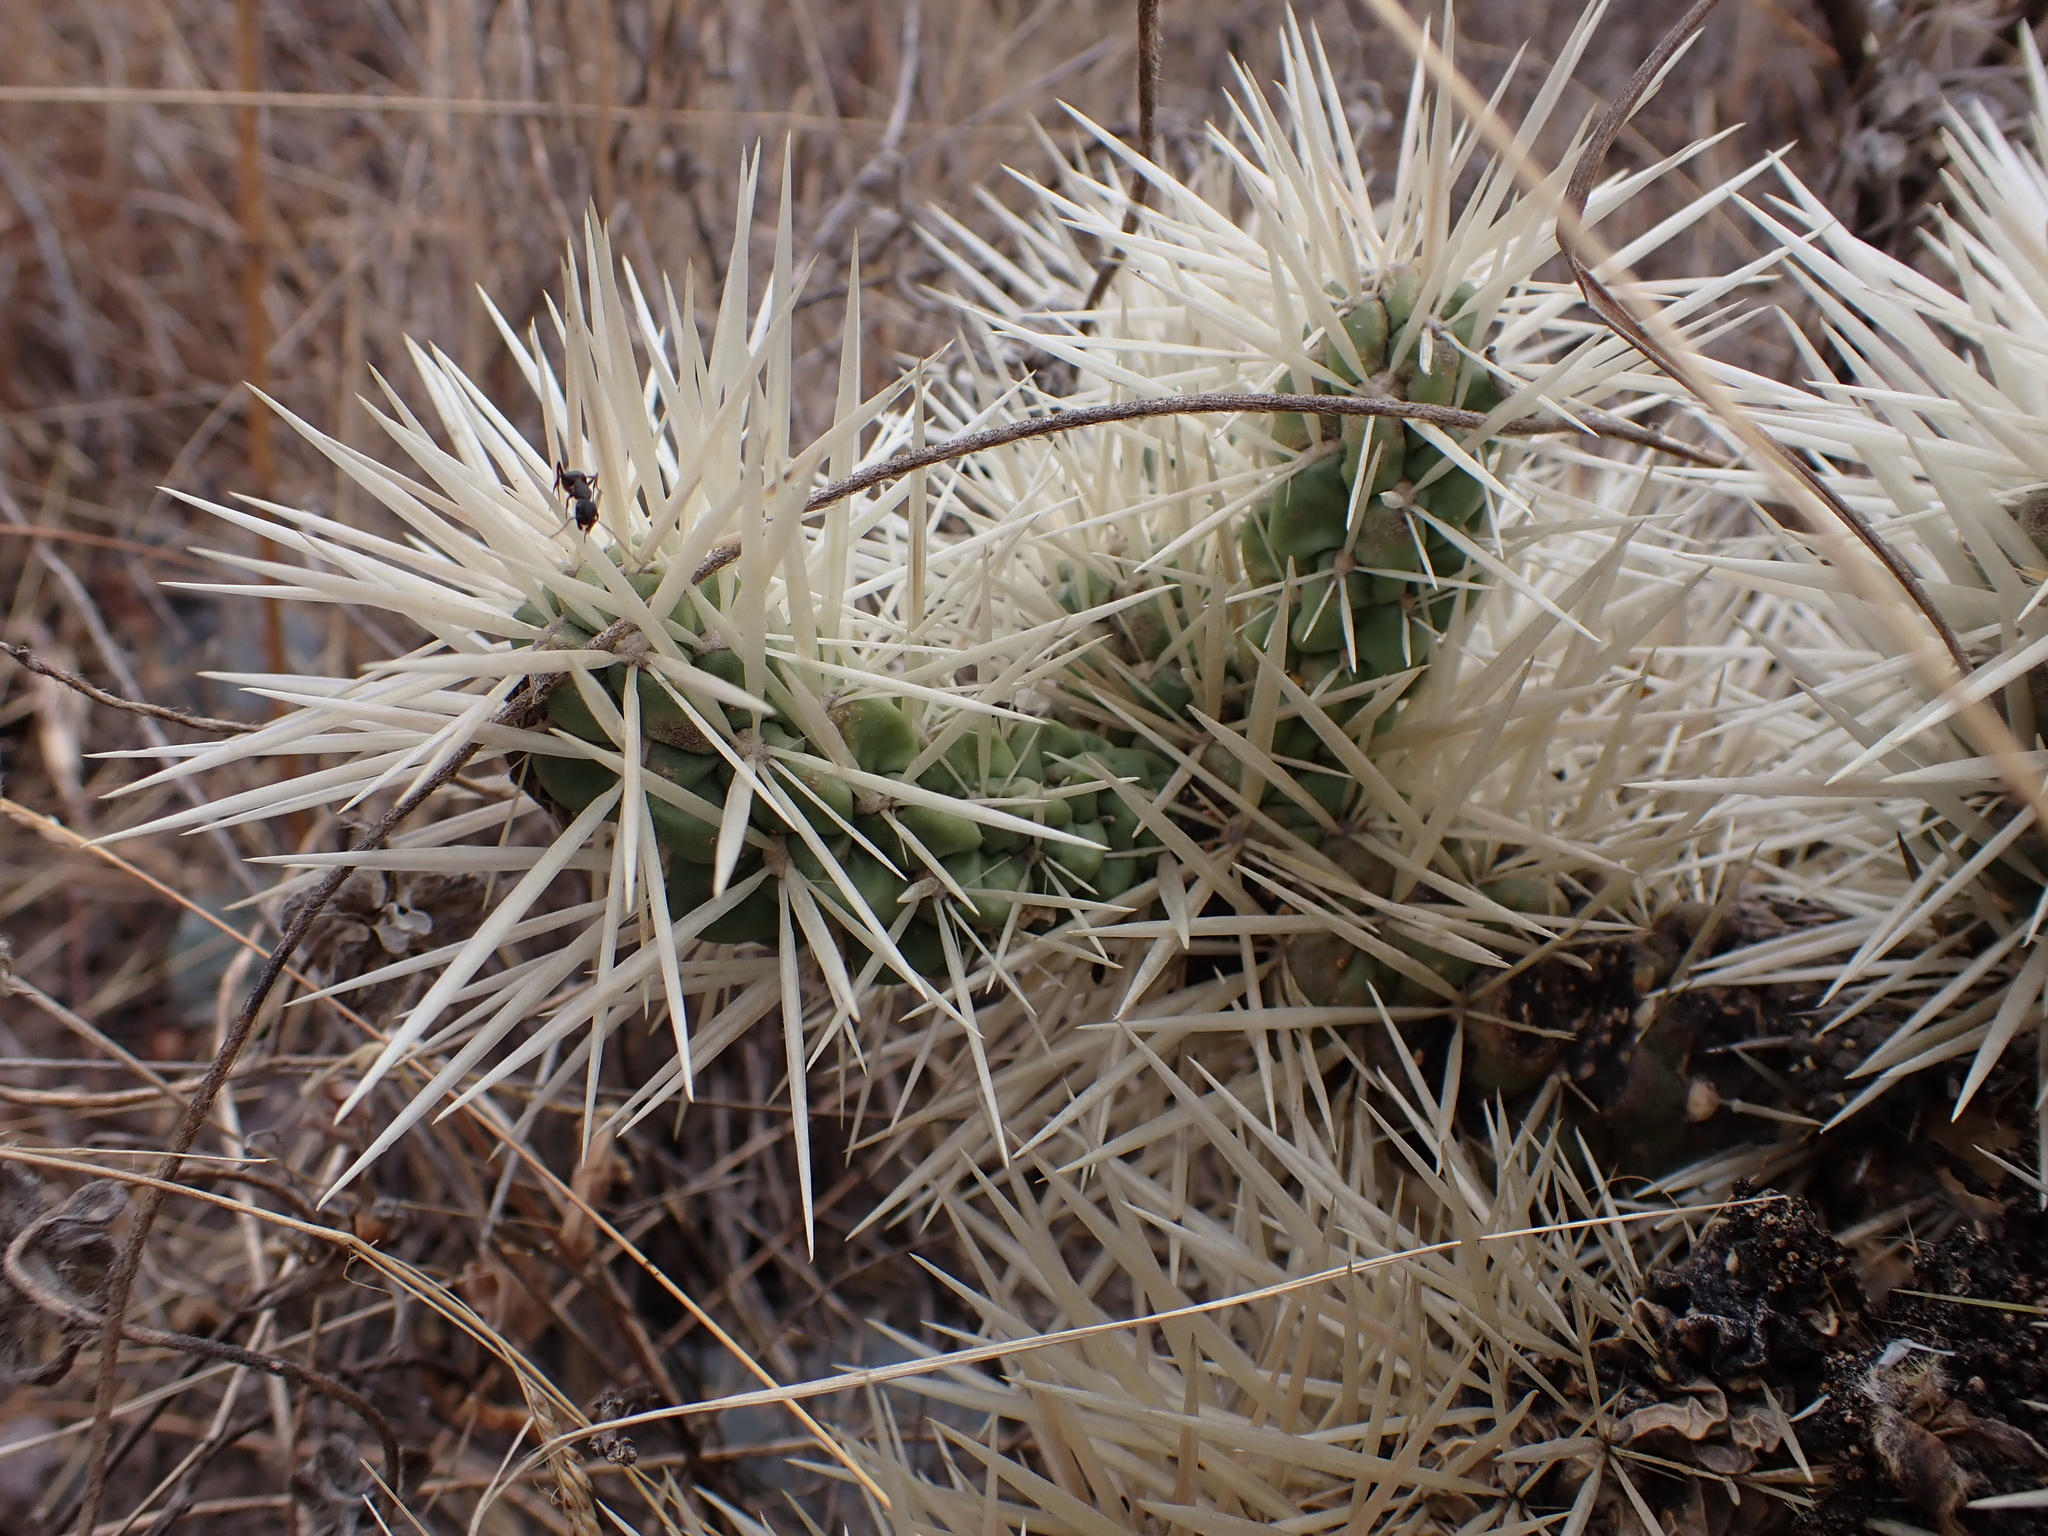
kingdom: Plantae
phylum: Tracheophyta
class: Magnoliopsida
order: Caryophyllales
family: Cactaceae
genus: Cylindropuntia
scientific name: Cylindropuntia tunicata
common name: Sheathed cholla
